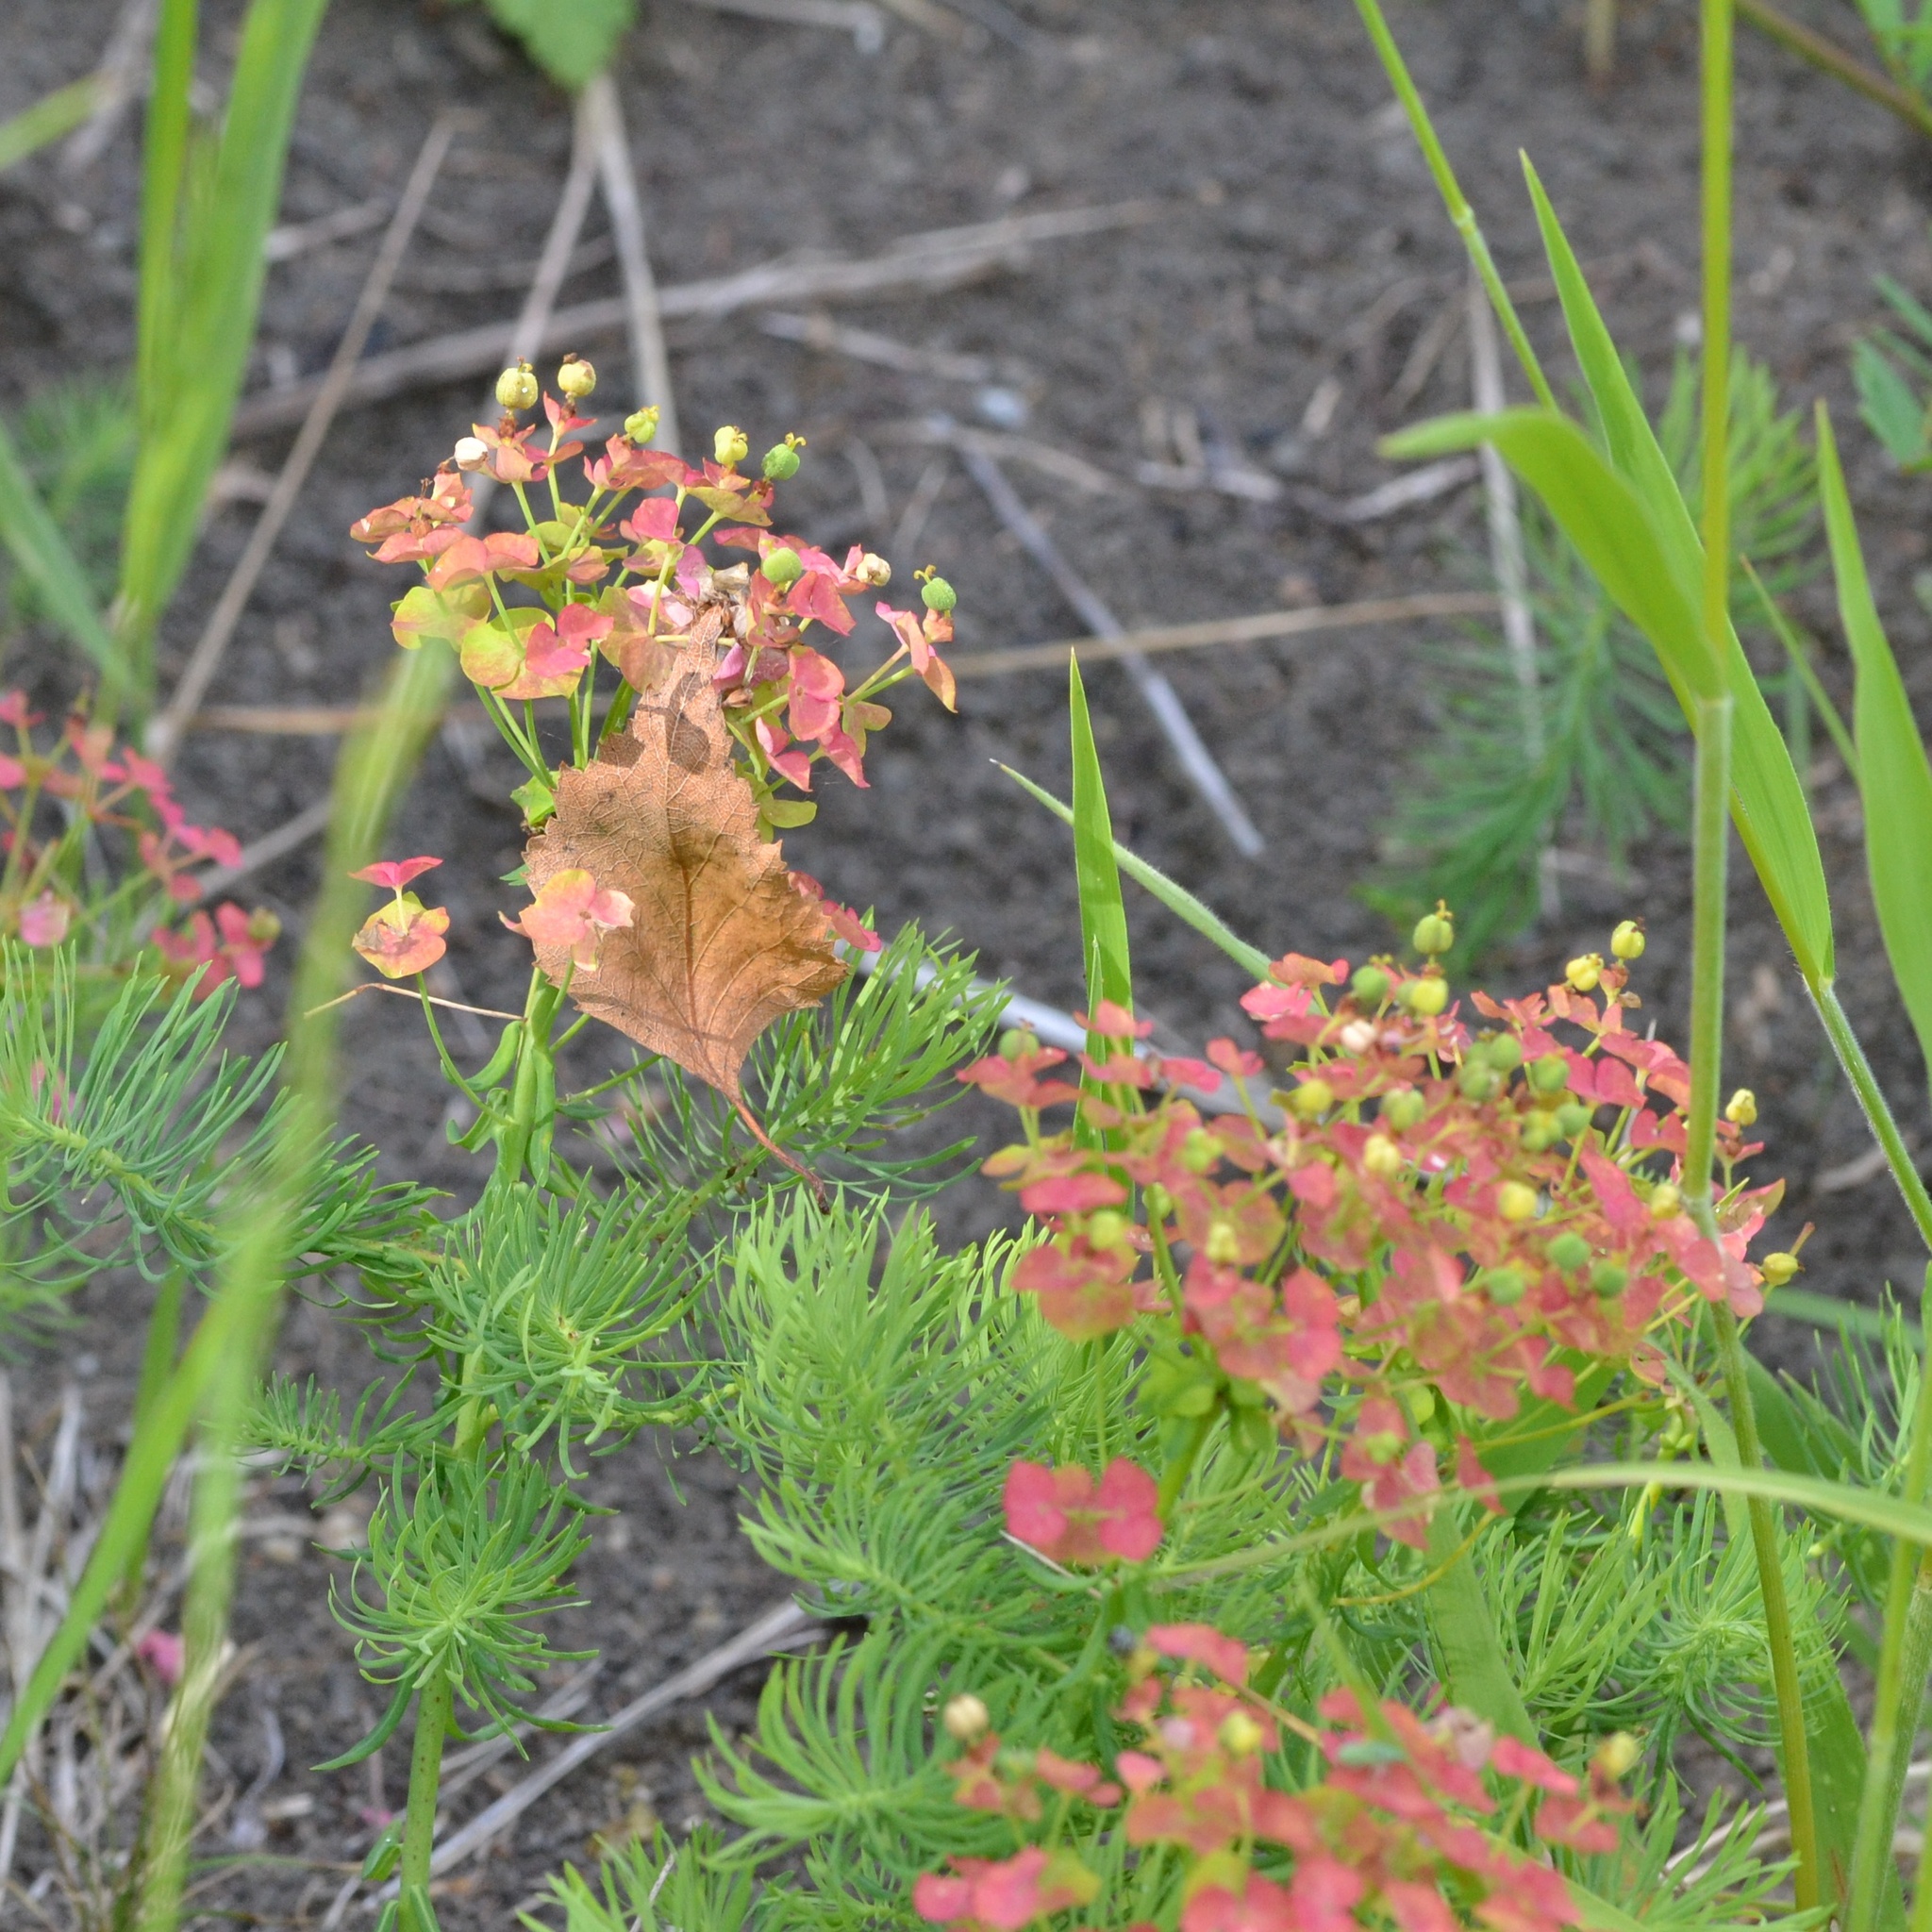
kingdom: Plantae
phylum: Tracheophyta
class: Magnoliopsida
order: Malpighiales
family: Euphorbiaceae
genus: Euphorbia
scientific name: Euphorbia cyparissias
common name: Cypress spurge
